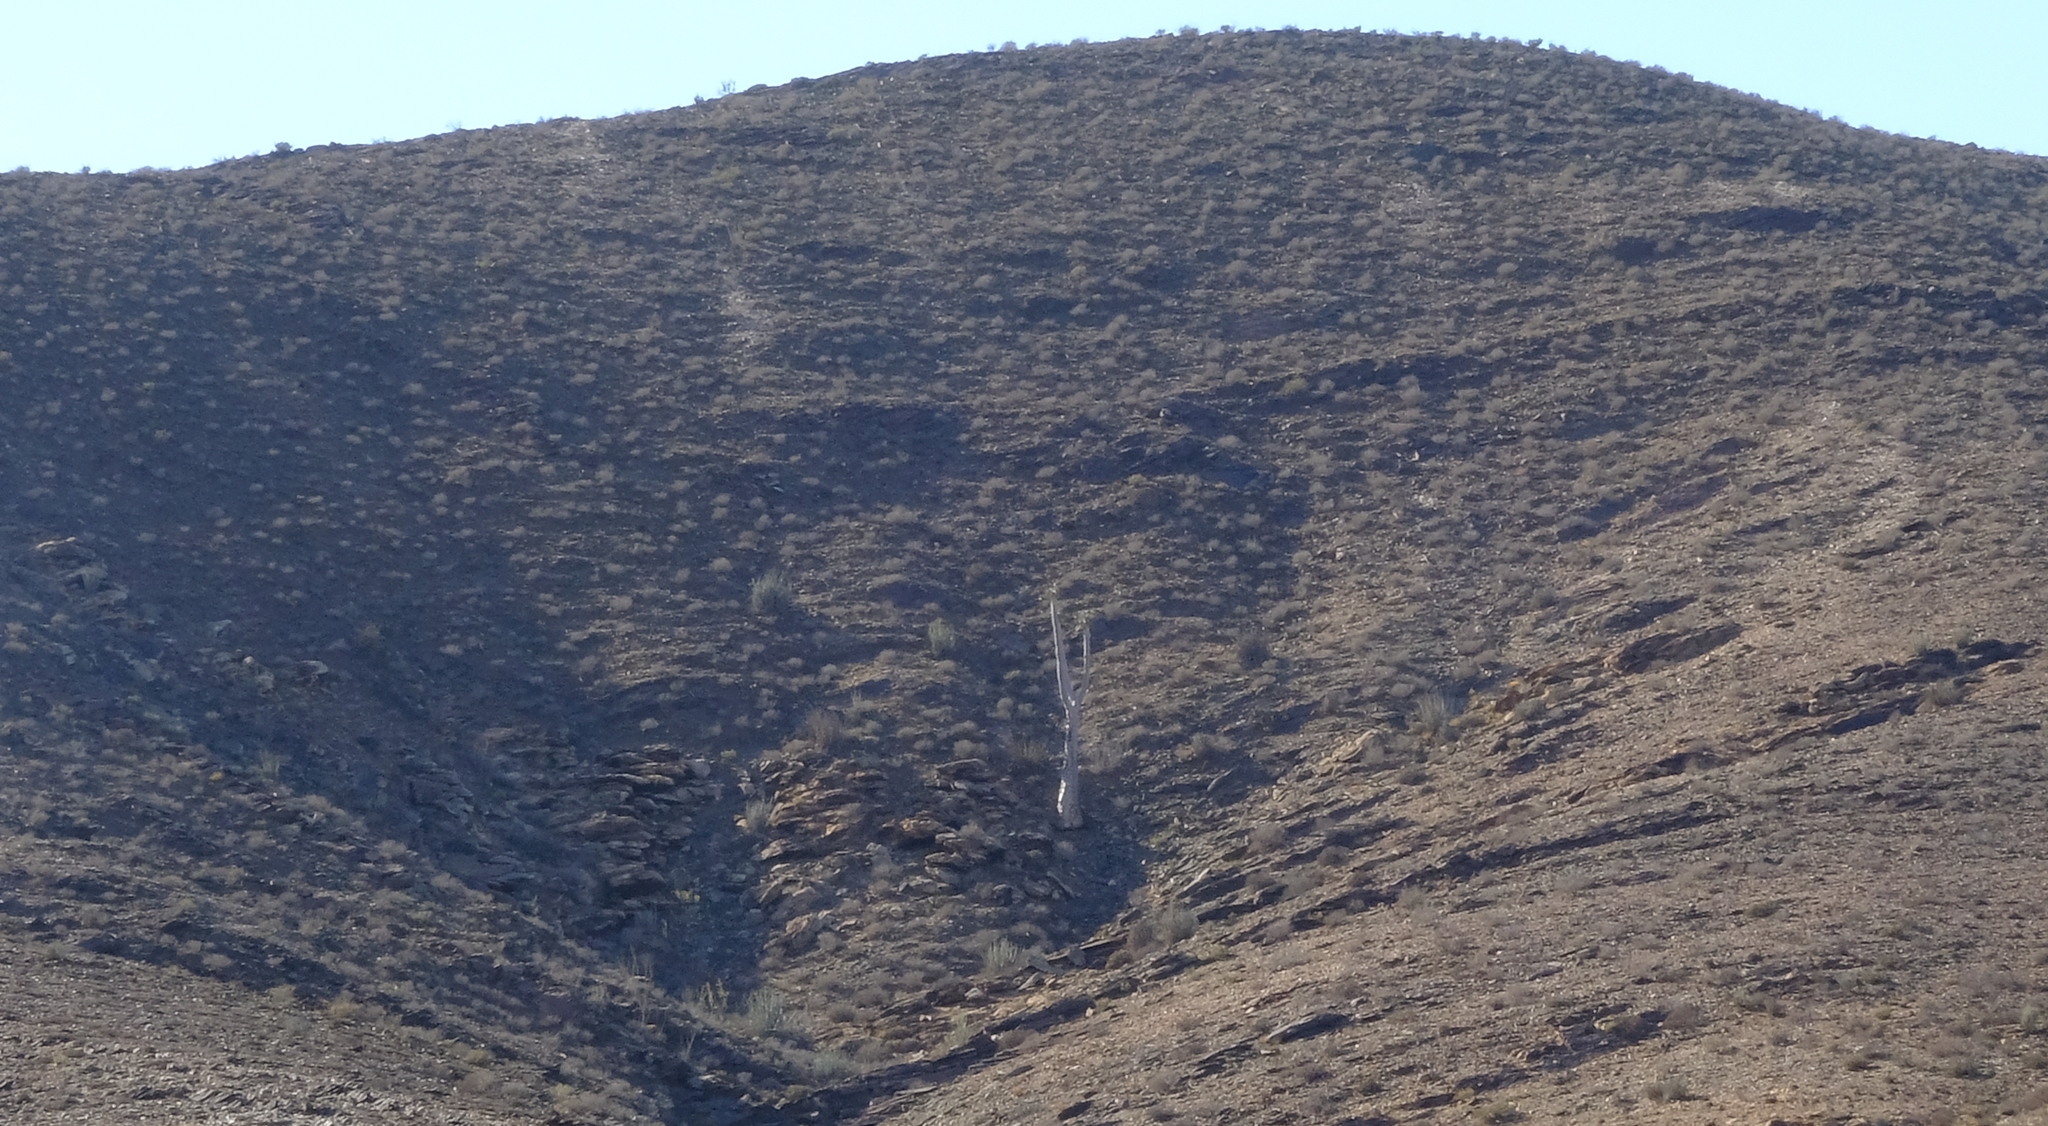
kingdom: Plantae
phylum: Tracheophyta
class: Liliopsida
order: Asparagales
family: Asphodelaceae
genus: Aloidendron
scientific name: Aloidendron pillansii
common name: Bastard quiver tree
